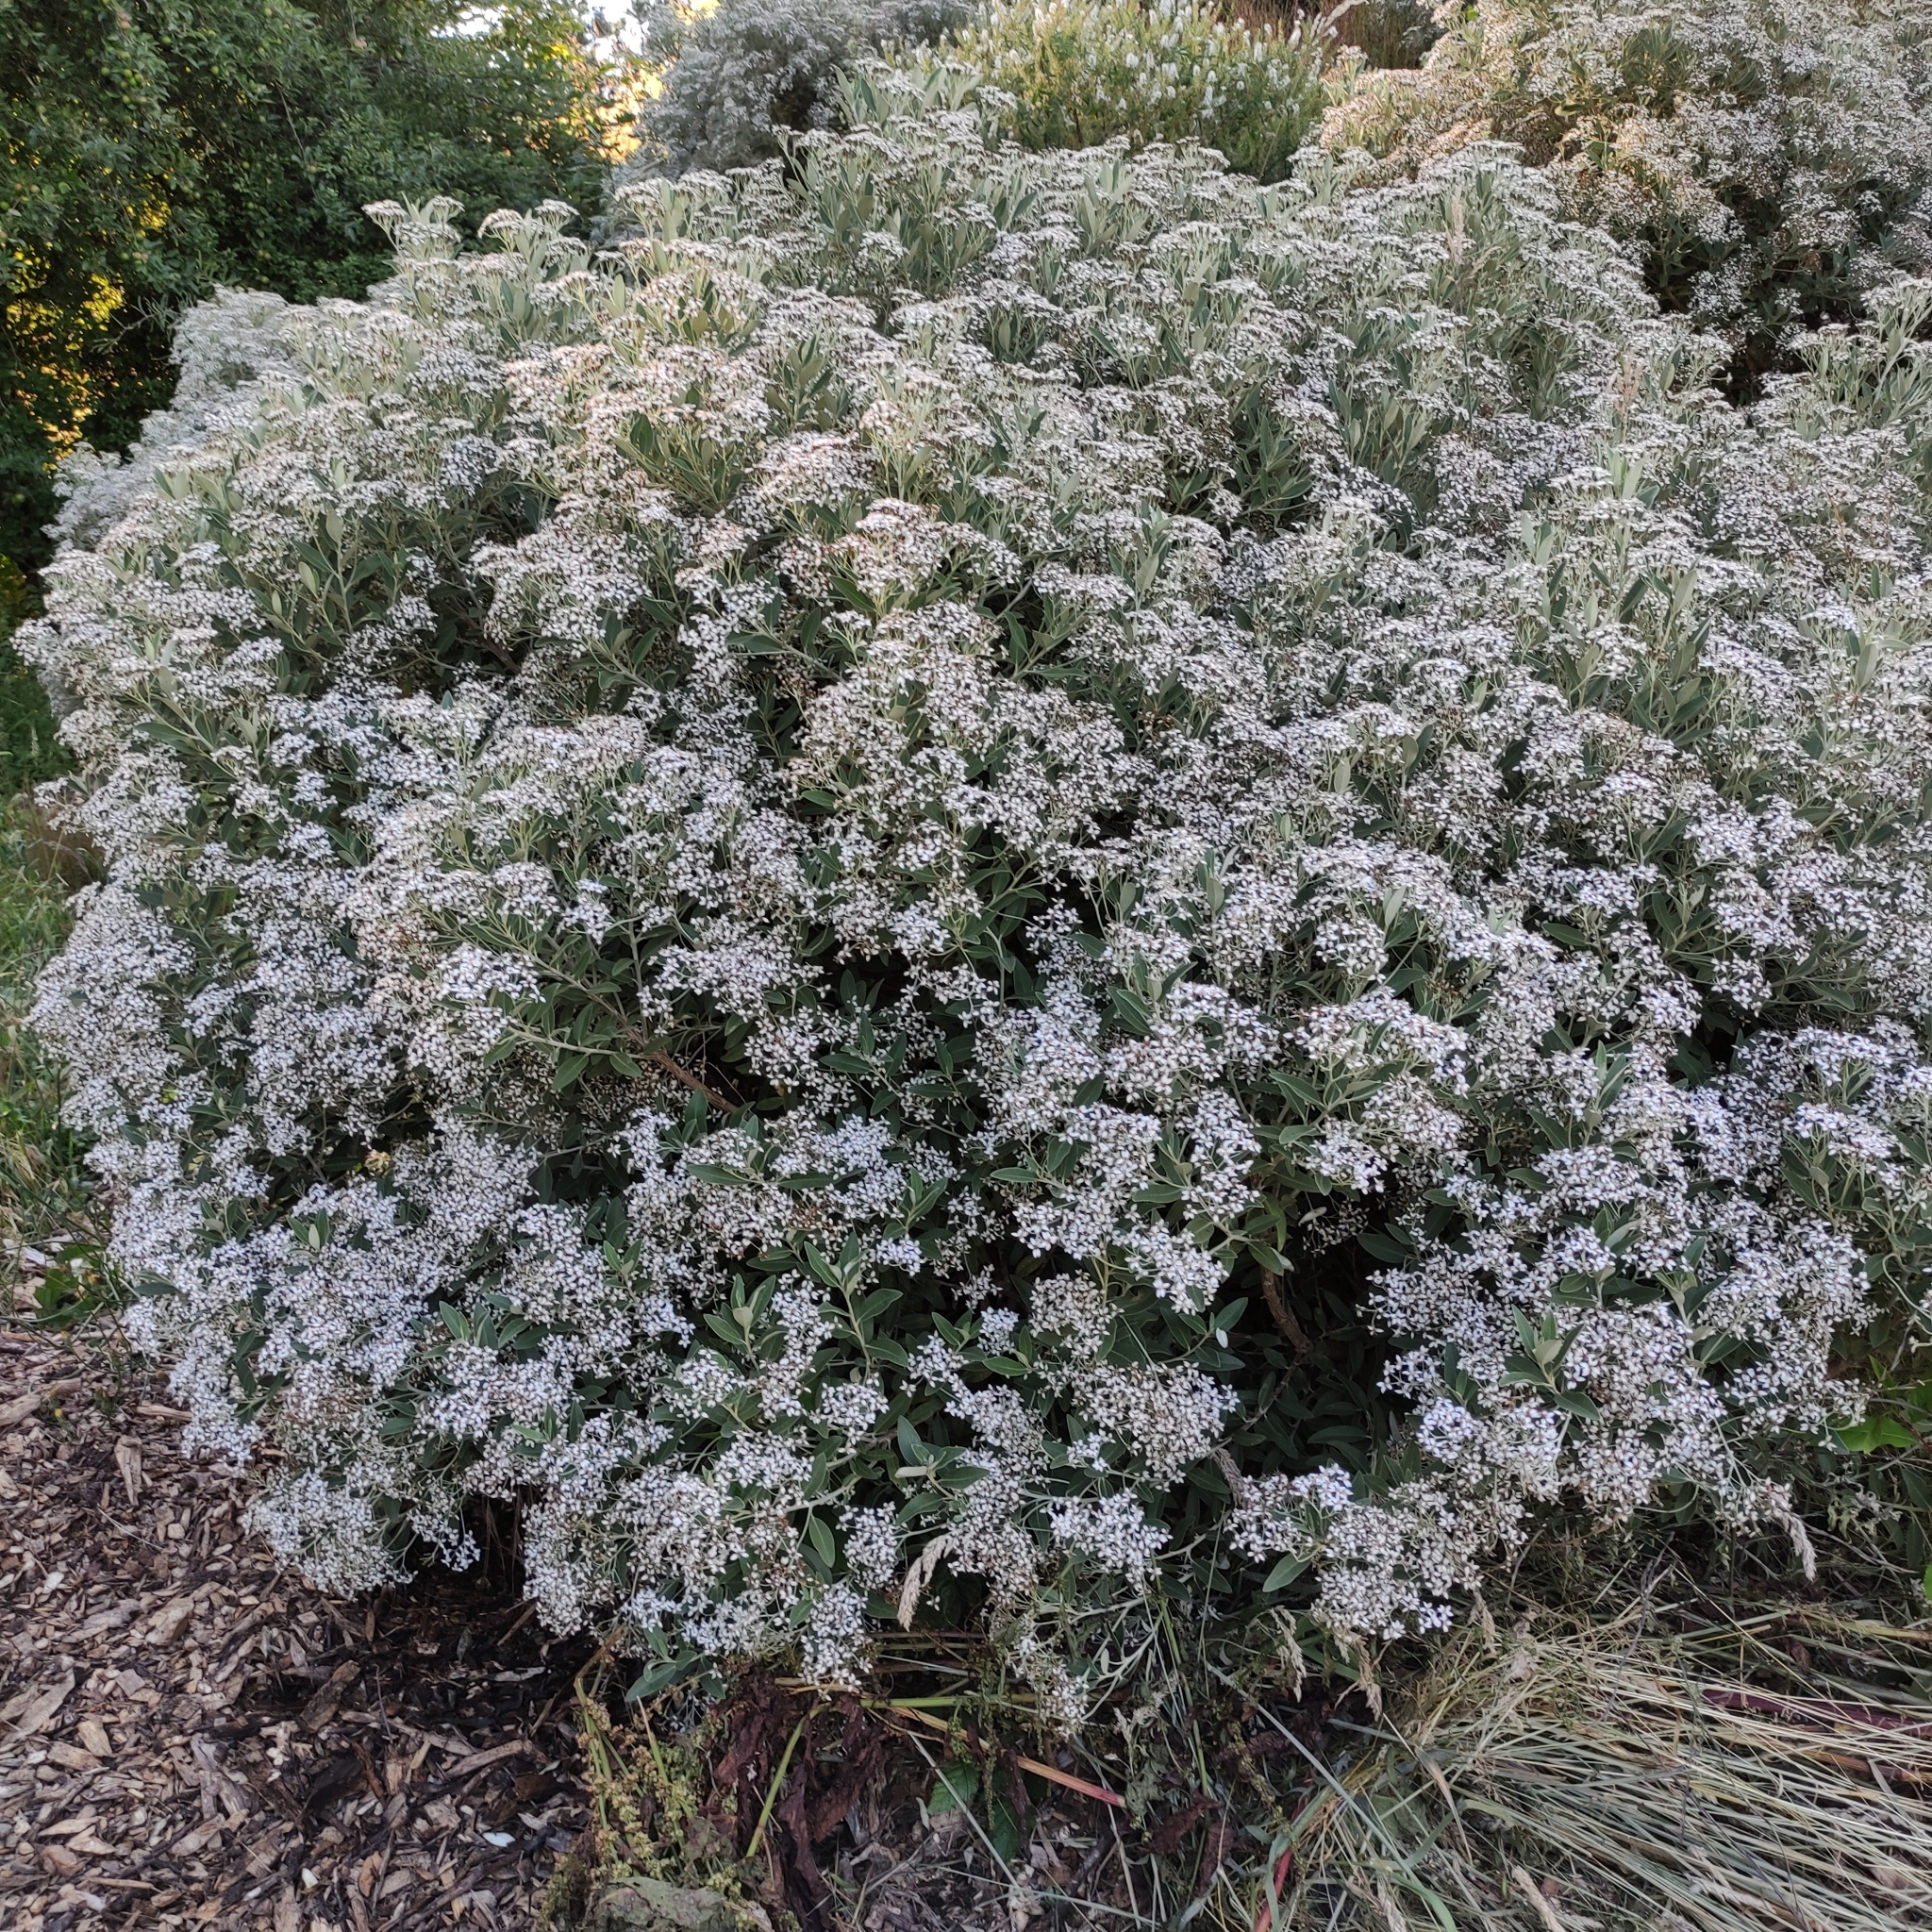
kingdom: Plantae
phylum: Tracheophyta
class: Magnoliopsida
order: Asterales
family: Asteraceae
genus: Olearia
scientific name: Olearia avicenniifolia
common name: Mangrove-leaf daisybush
